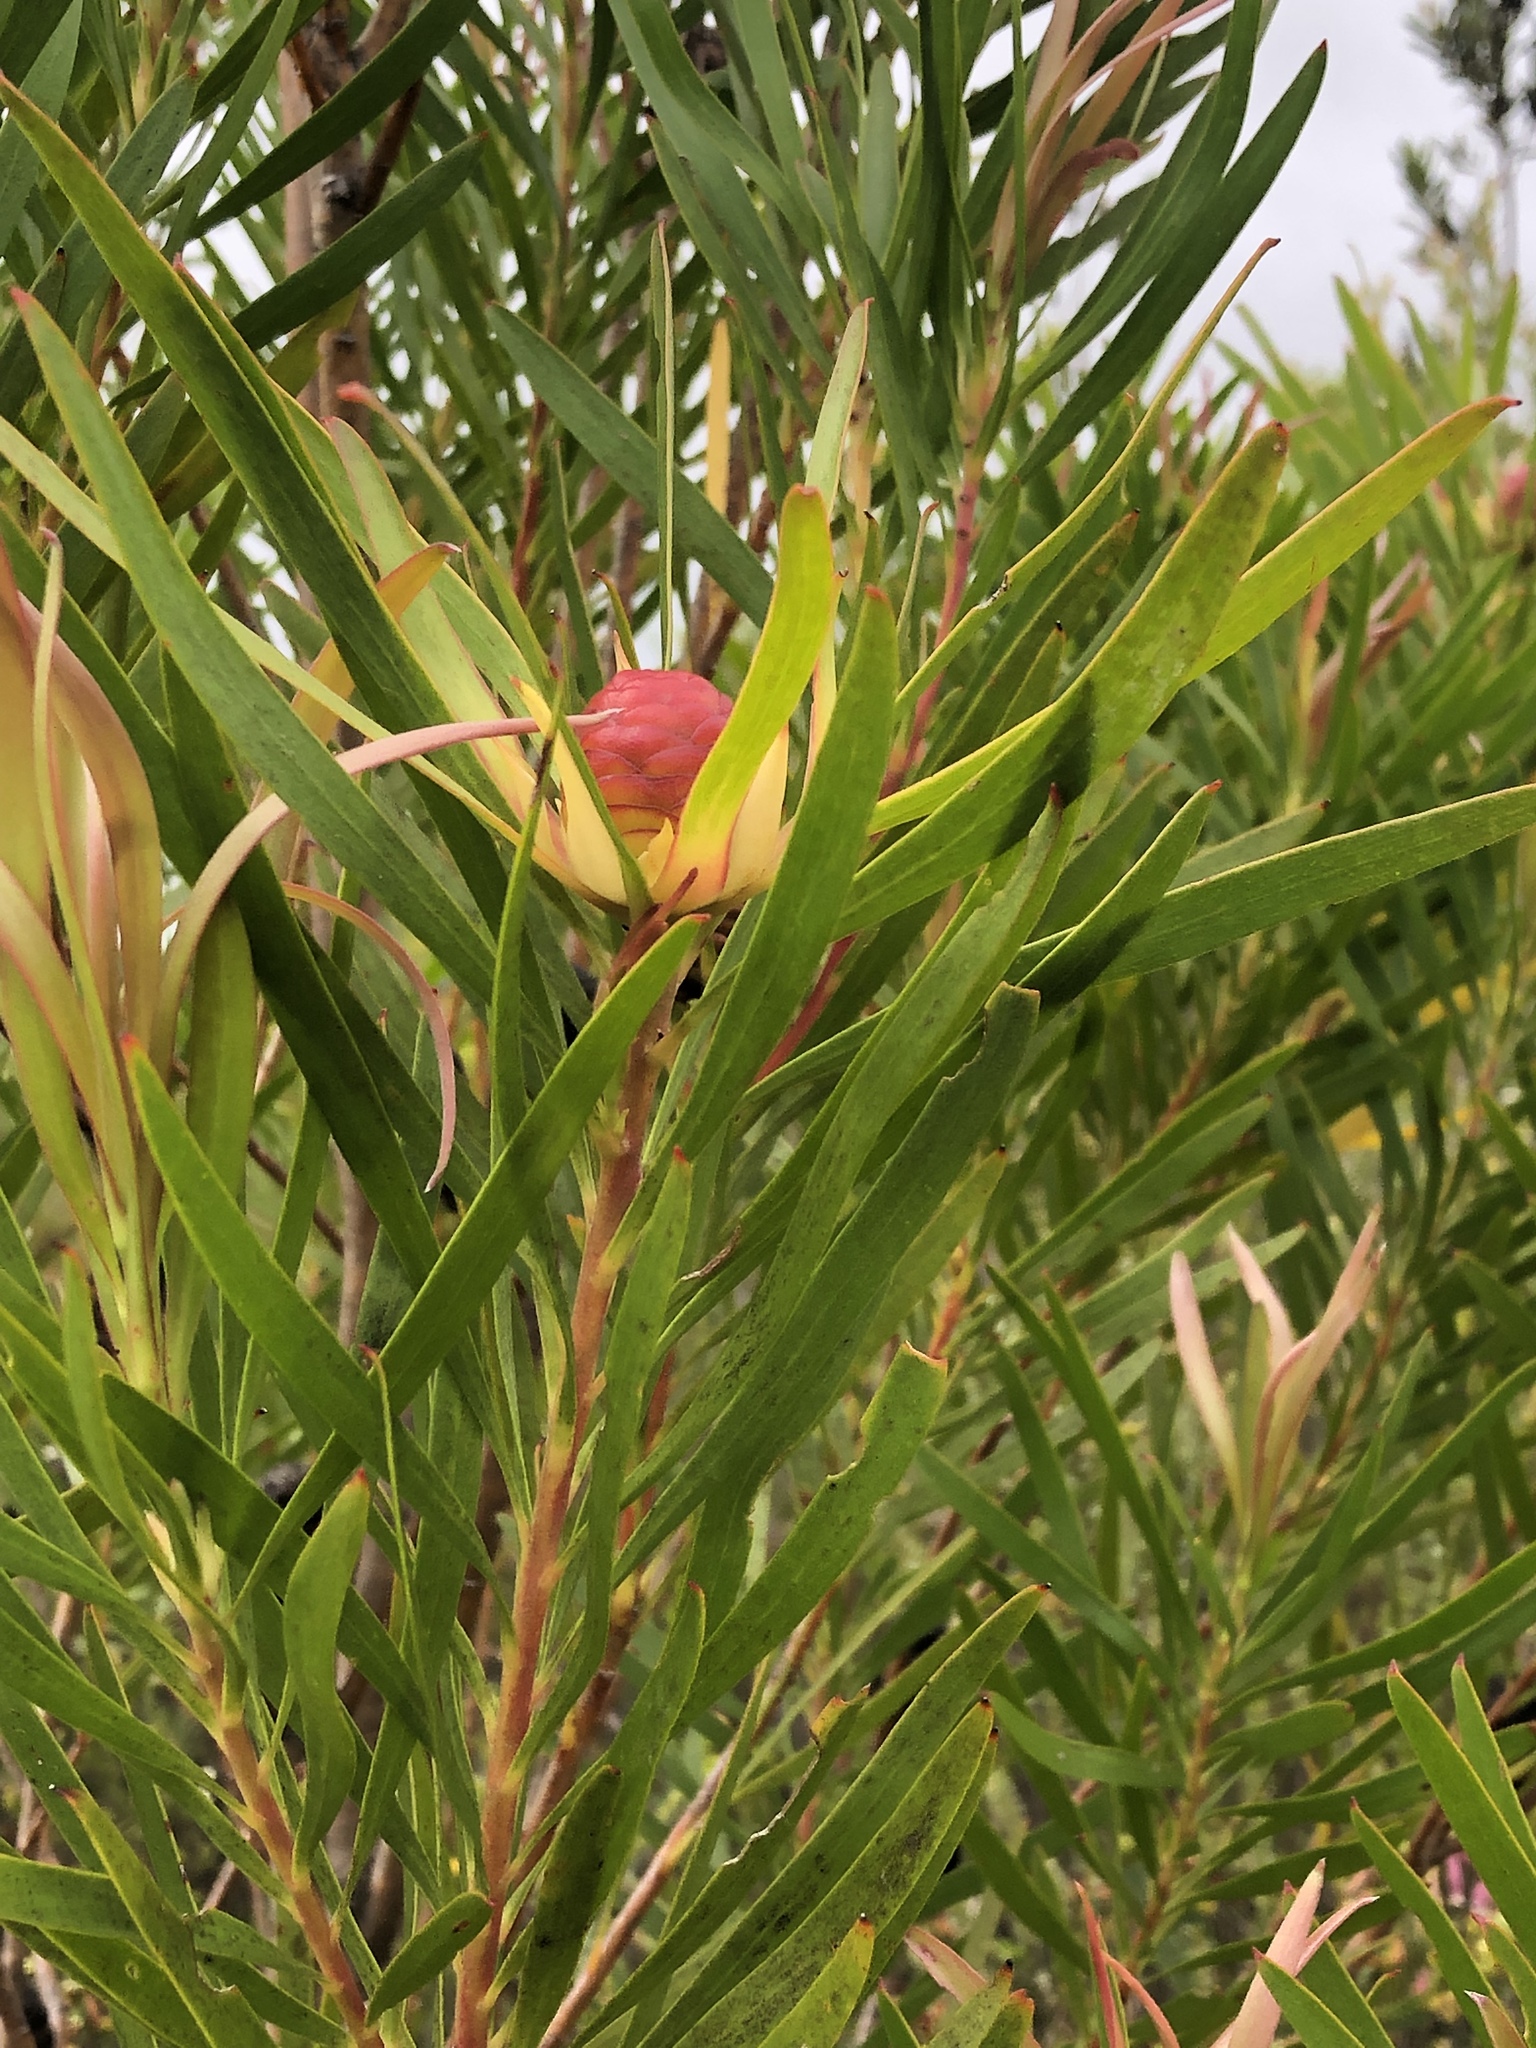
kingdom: Plantae
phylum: Tracheophyta
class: Magnoliopsida
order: Proteales
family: Proteaceae
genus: Leucadendron
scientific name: Leucadendron eucalyptifolium
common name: Gum-leaved conebush
